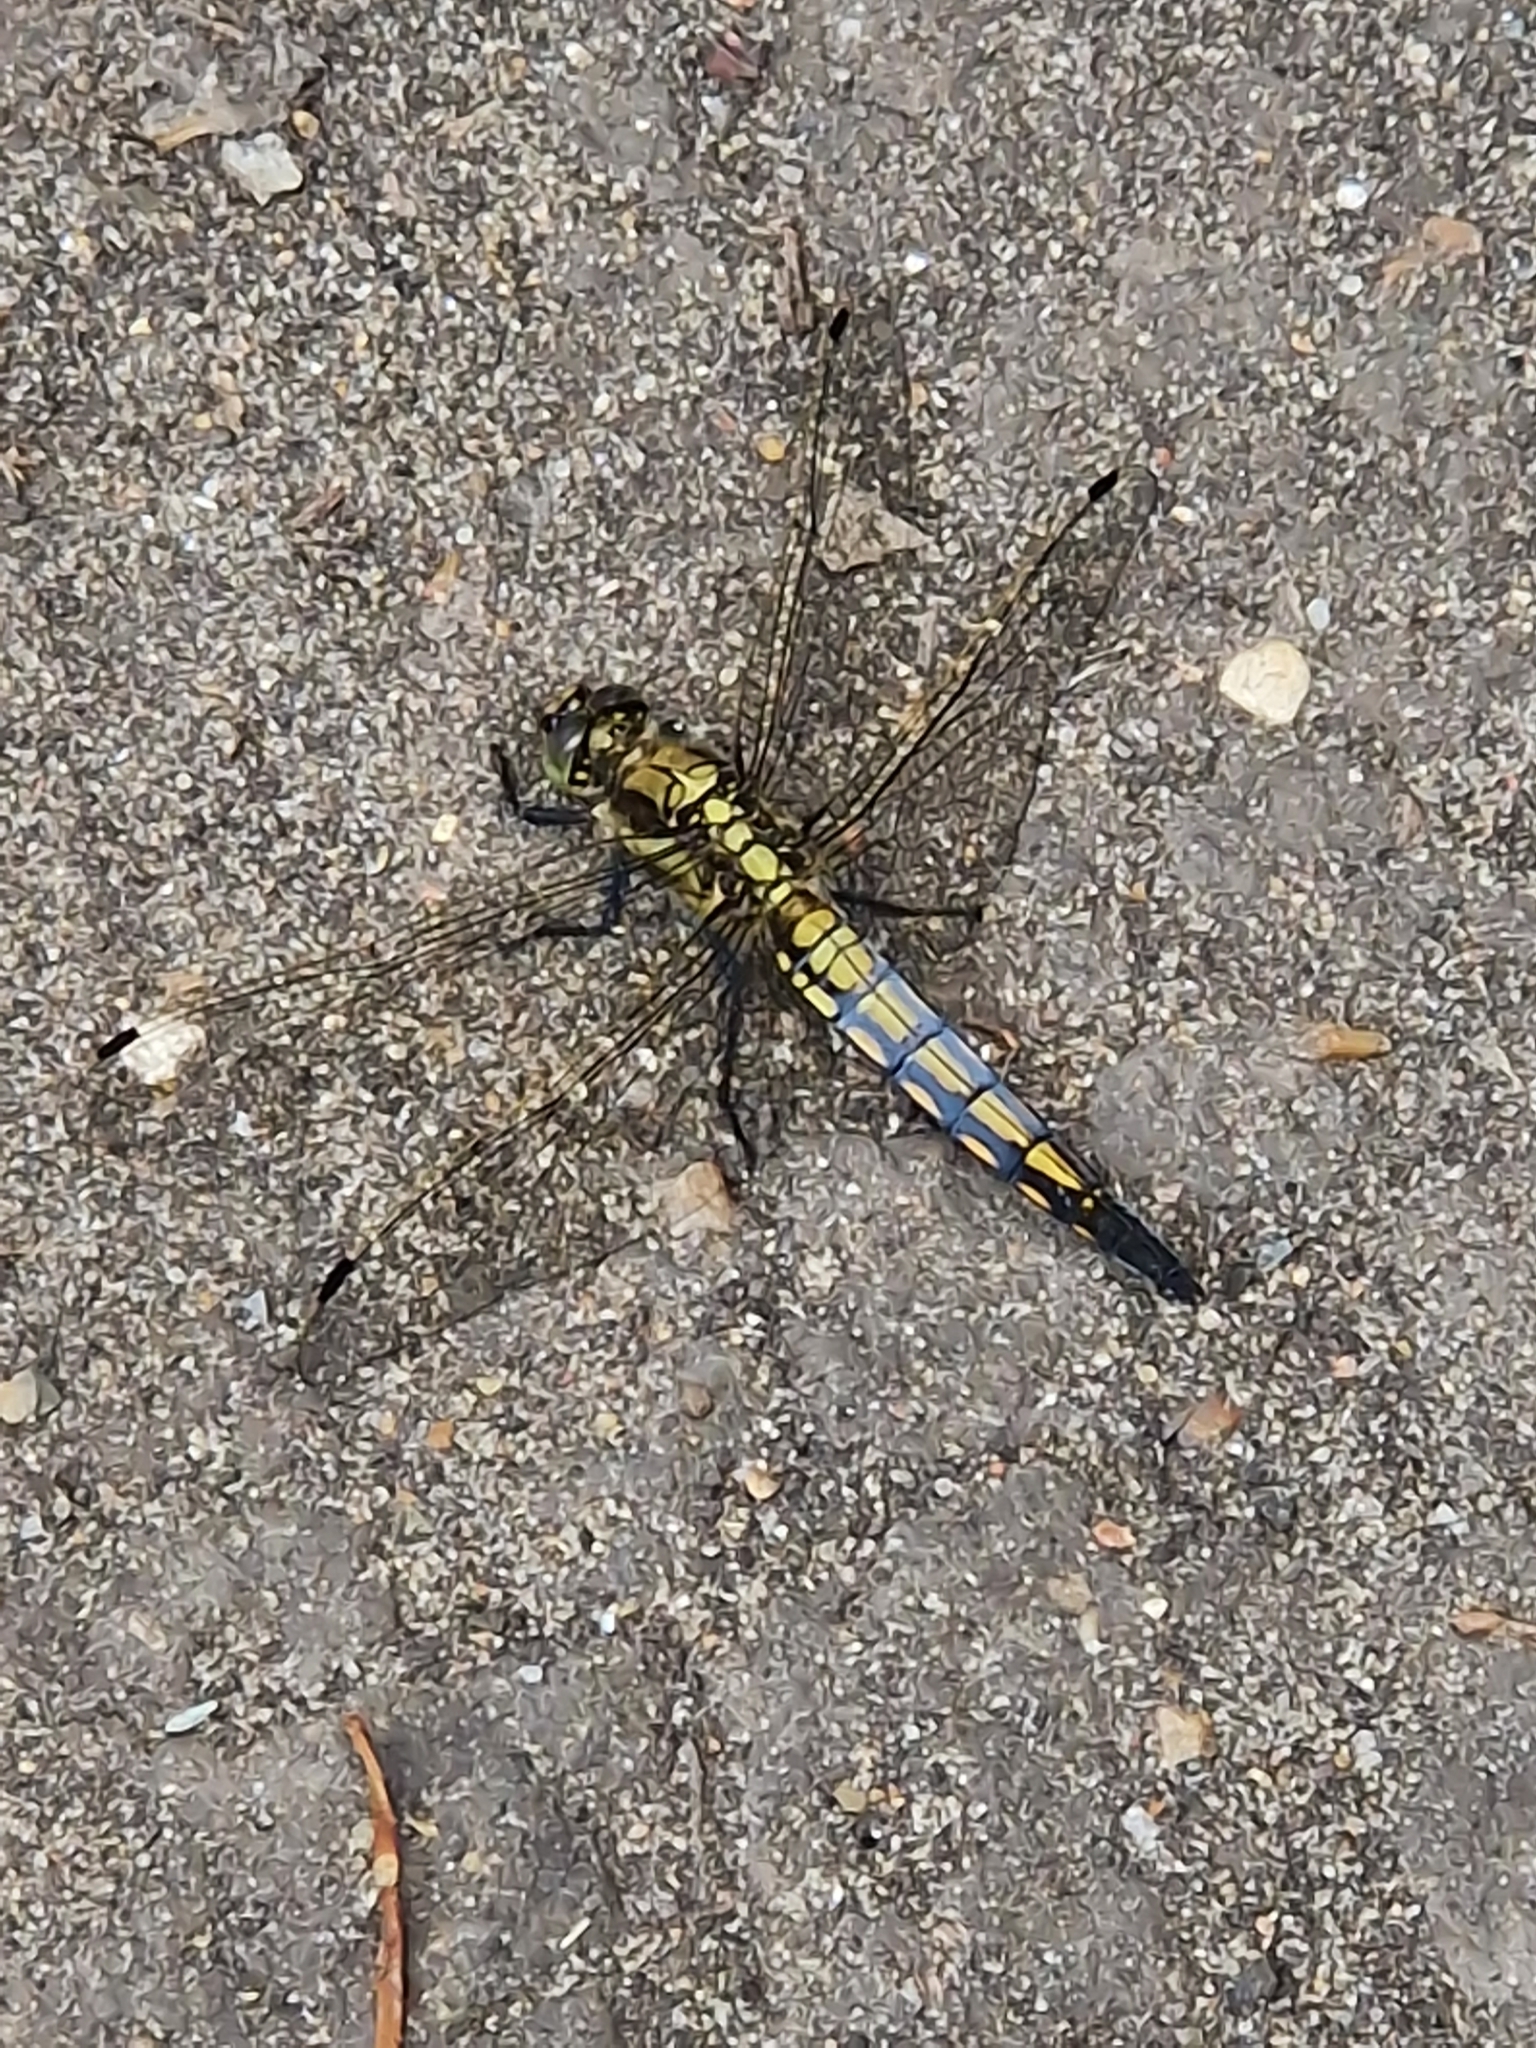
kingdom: Animalia
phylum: Arthropoda
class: Insecta
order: Odonata
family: Libellulidae
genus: Orthetrum
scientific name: Orthetrum cancellatum
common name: Black-tailed skimmer
